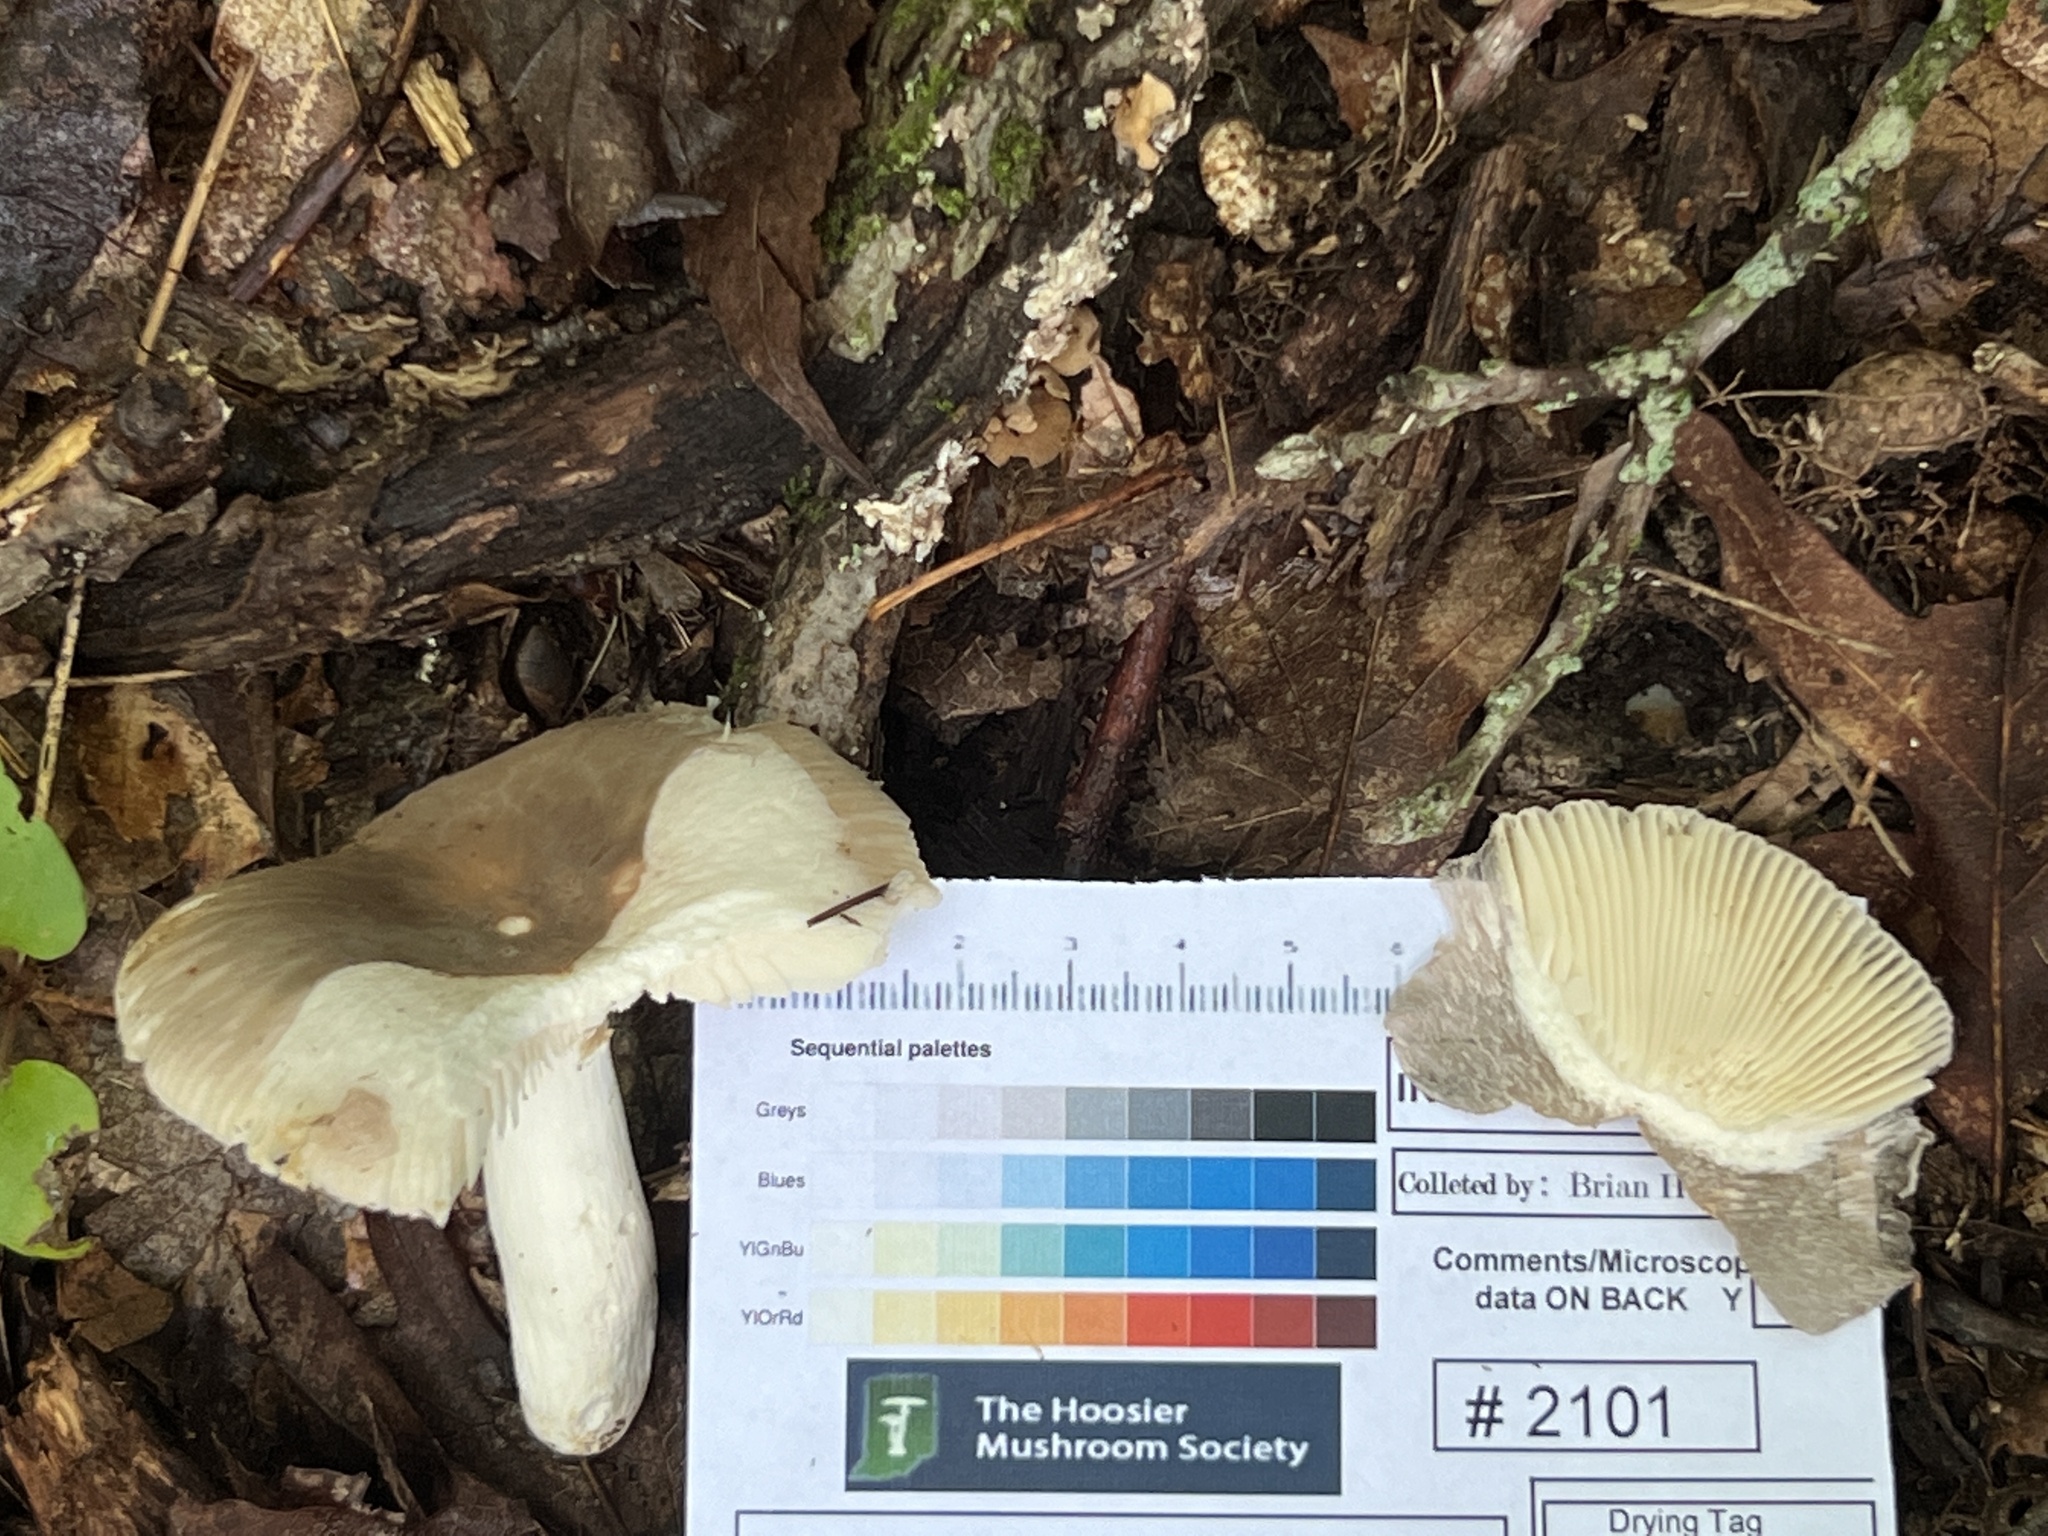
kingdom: Fungi
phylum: Basidiomycota
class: Agaricomycetes
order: Russulales
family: Russulaceae
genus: Russula
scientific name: Russula crustosa
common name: Green quilt russula
